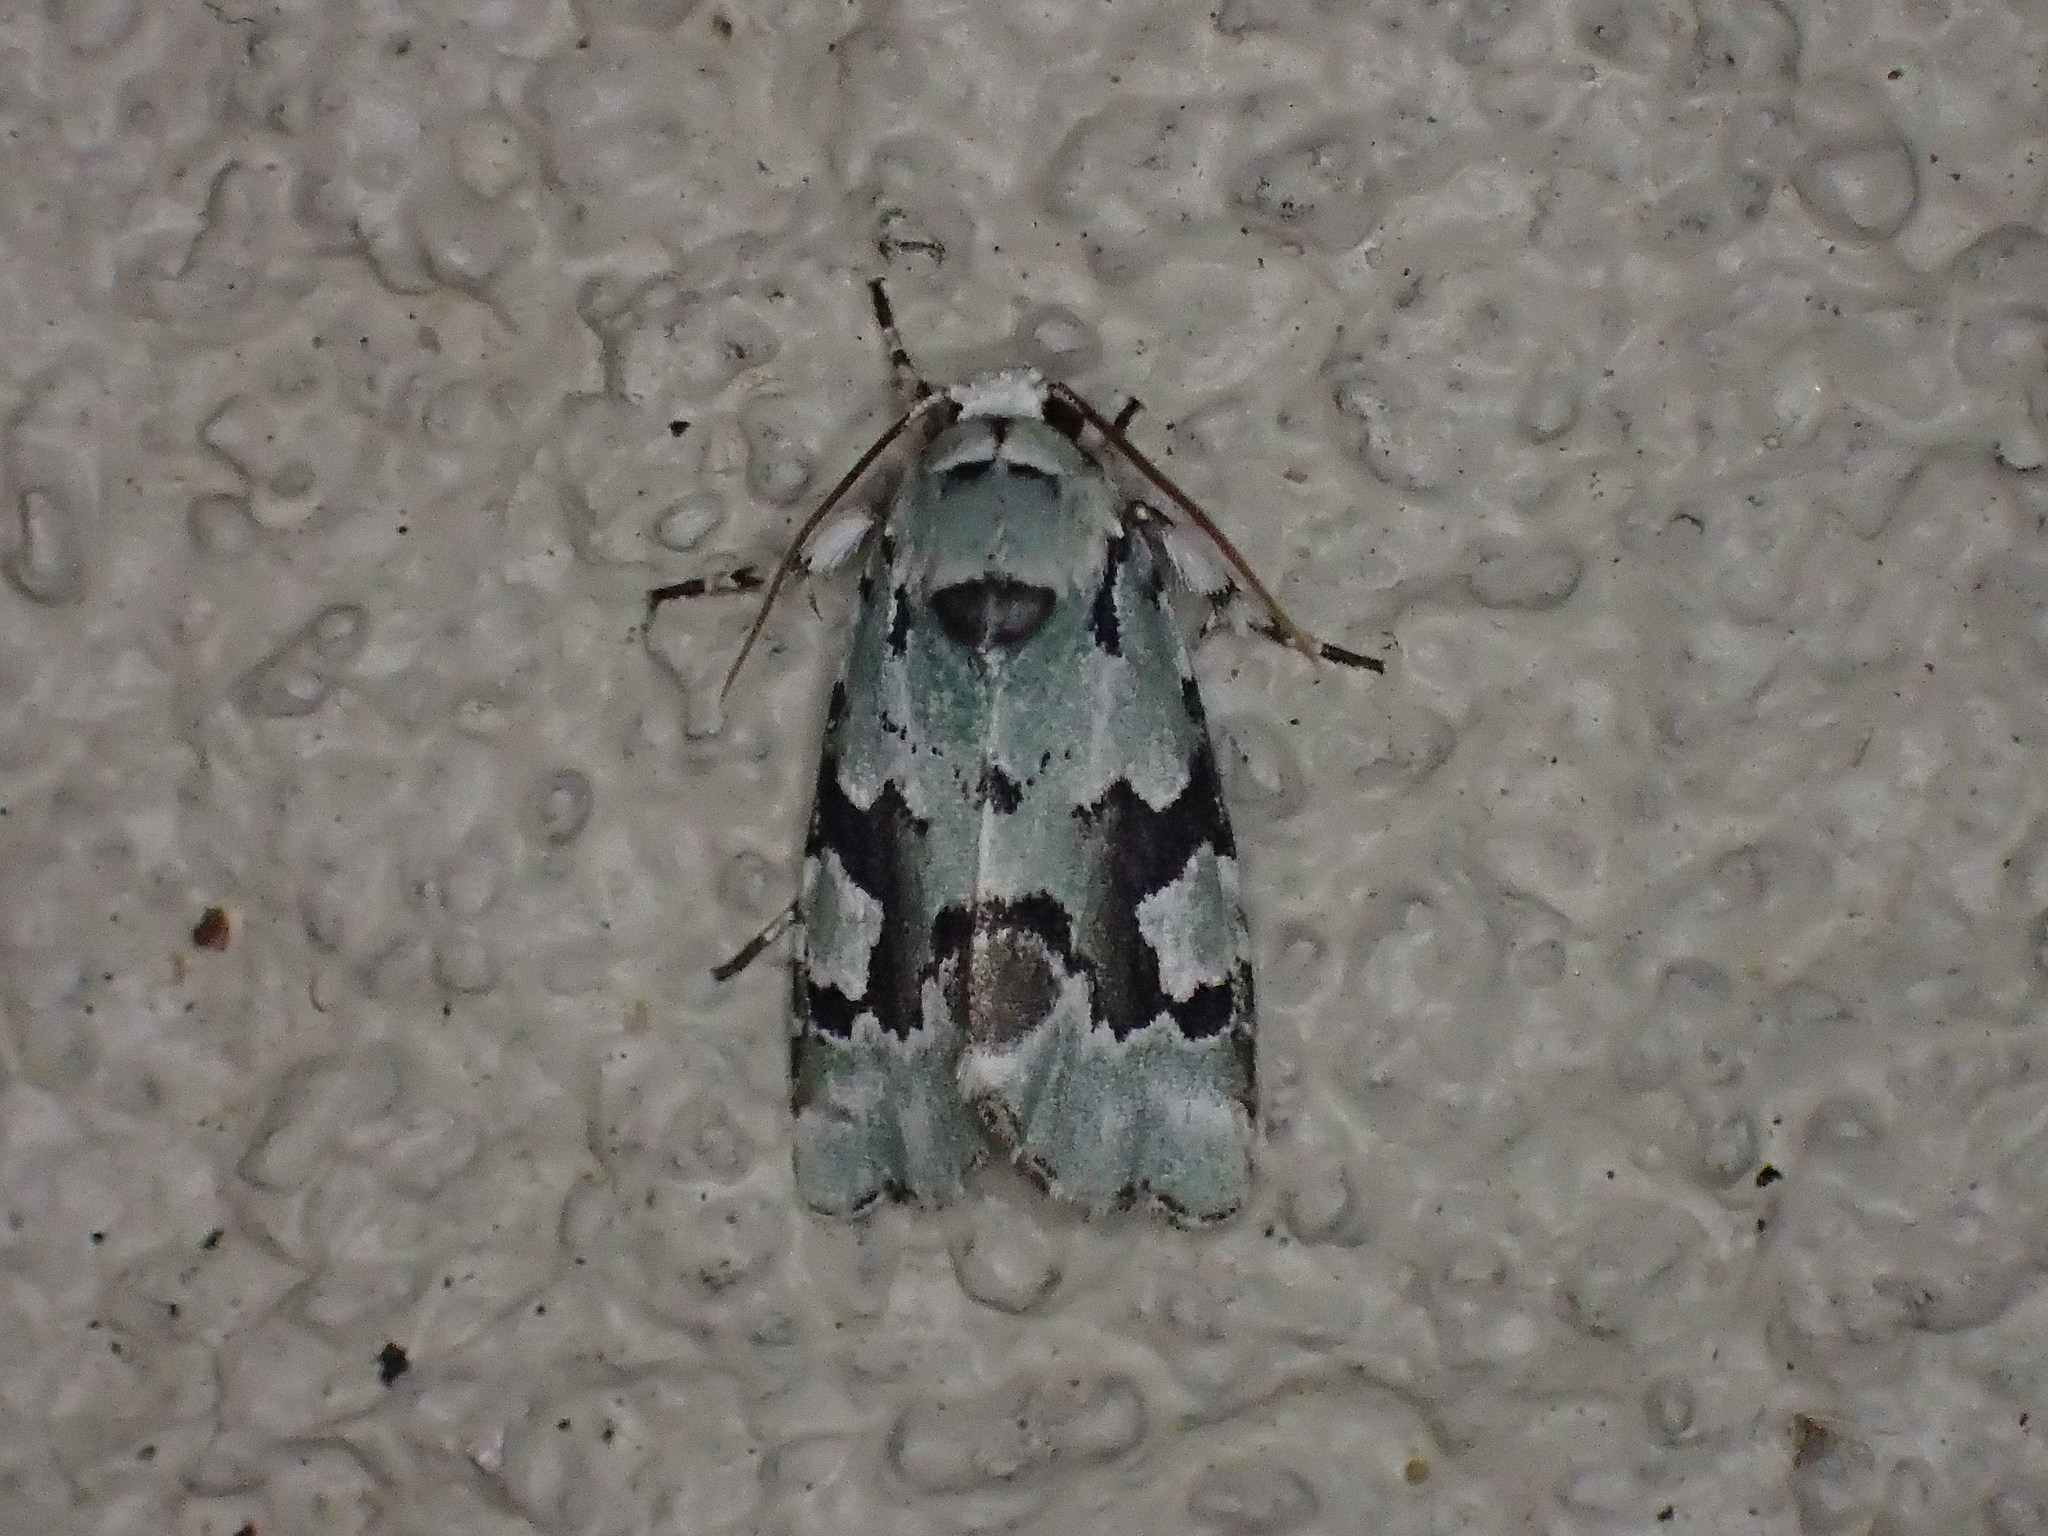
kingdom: Animalia
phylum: Arthropoda
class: Insecta
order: Lepidoptera
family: Noctuidae
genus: Emarginea
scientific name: Emarginea percara
